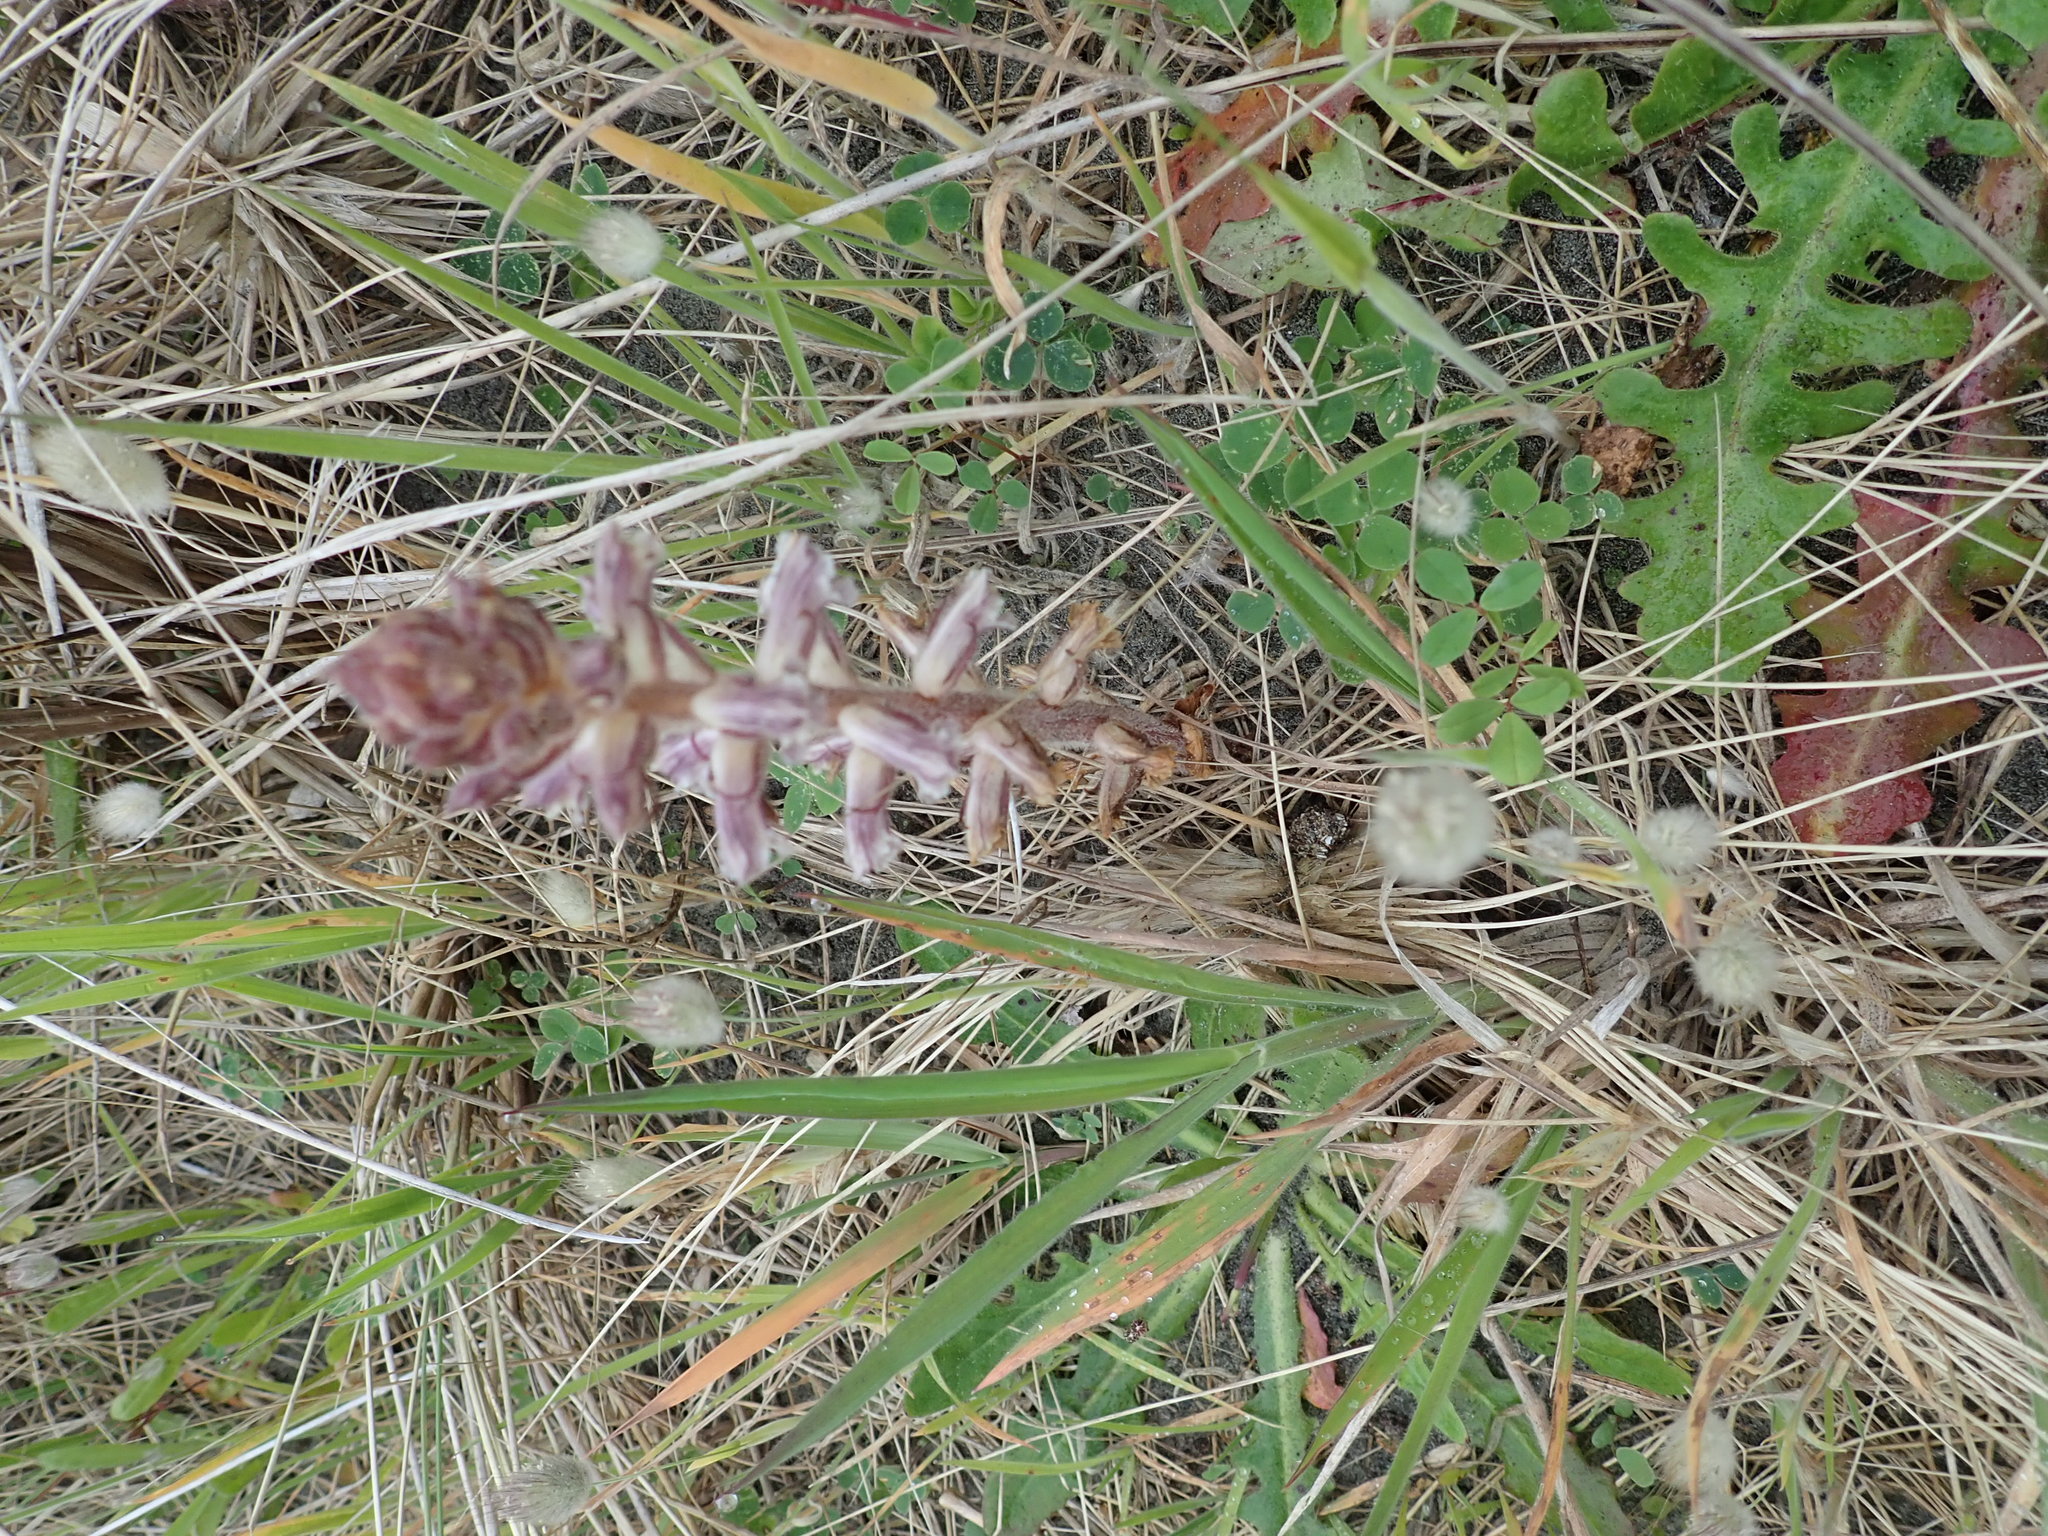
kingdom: Plantae
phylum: Tracheophyta
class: Magnoliopsida
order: Lamiales
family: Orobanchaceae
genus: Orobanche
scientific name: Orobanche minor
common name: Common broomrape
